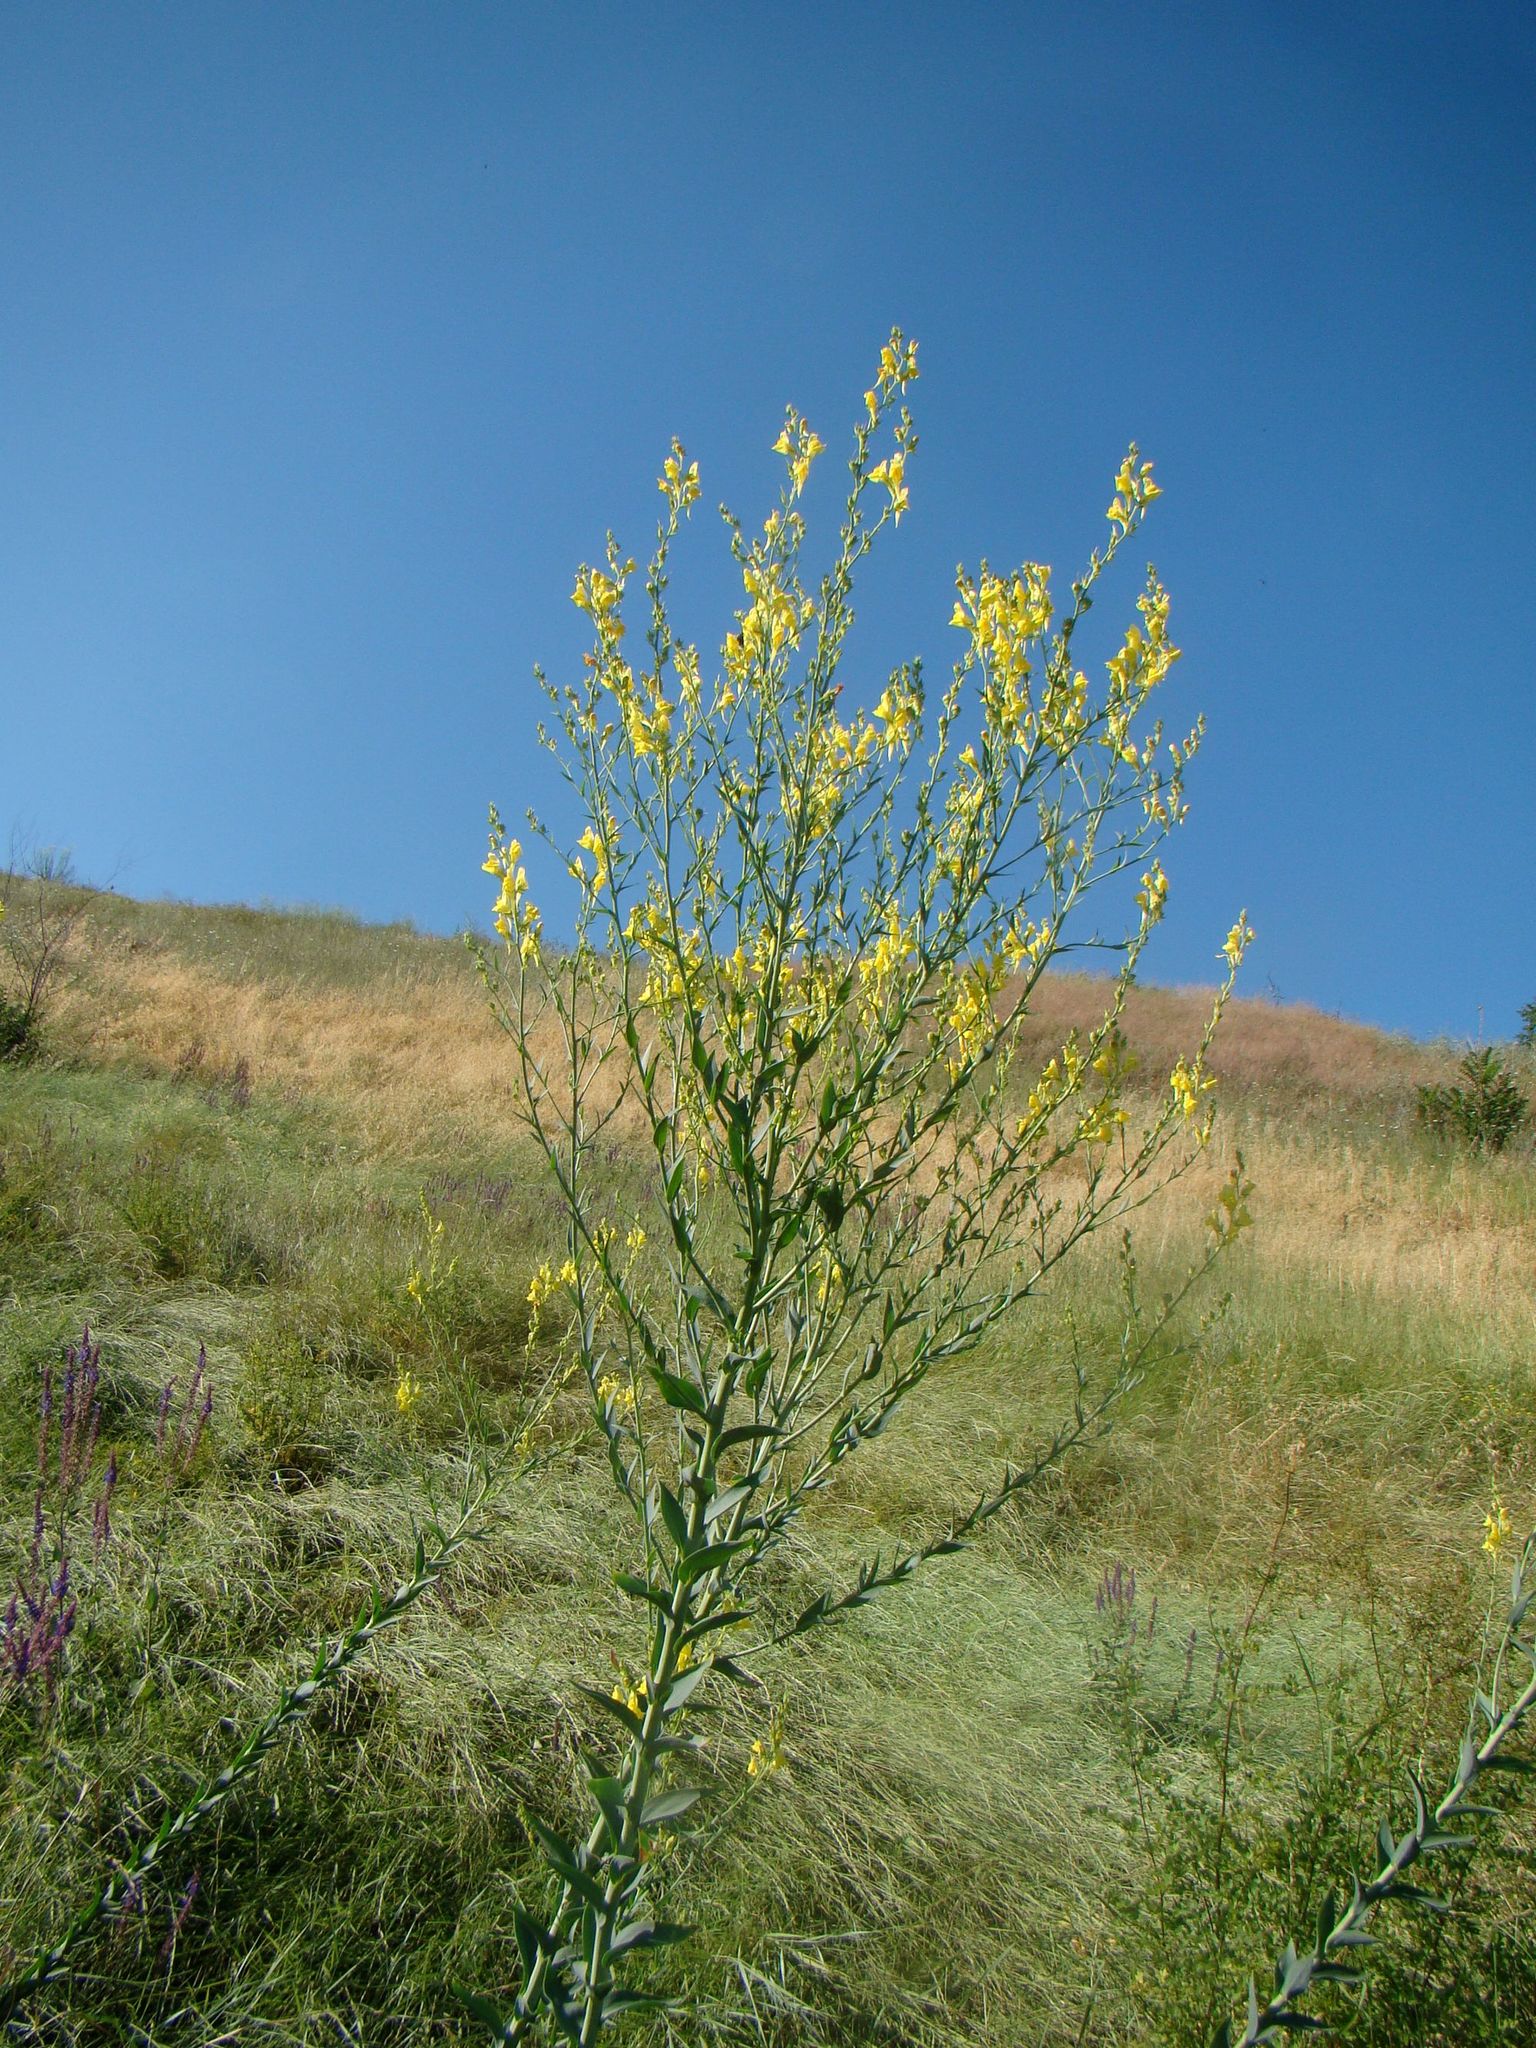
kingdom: Plantae
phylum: Tracheophyta
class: Magnoliopsida
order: Lamiales
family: Plantaginaceae
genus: Linaria
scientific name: Linaria genistifolia
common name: Broomleaf toadflax
